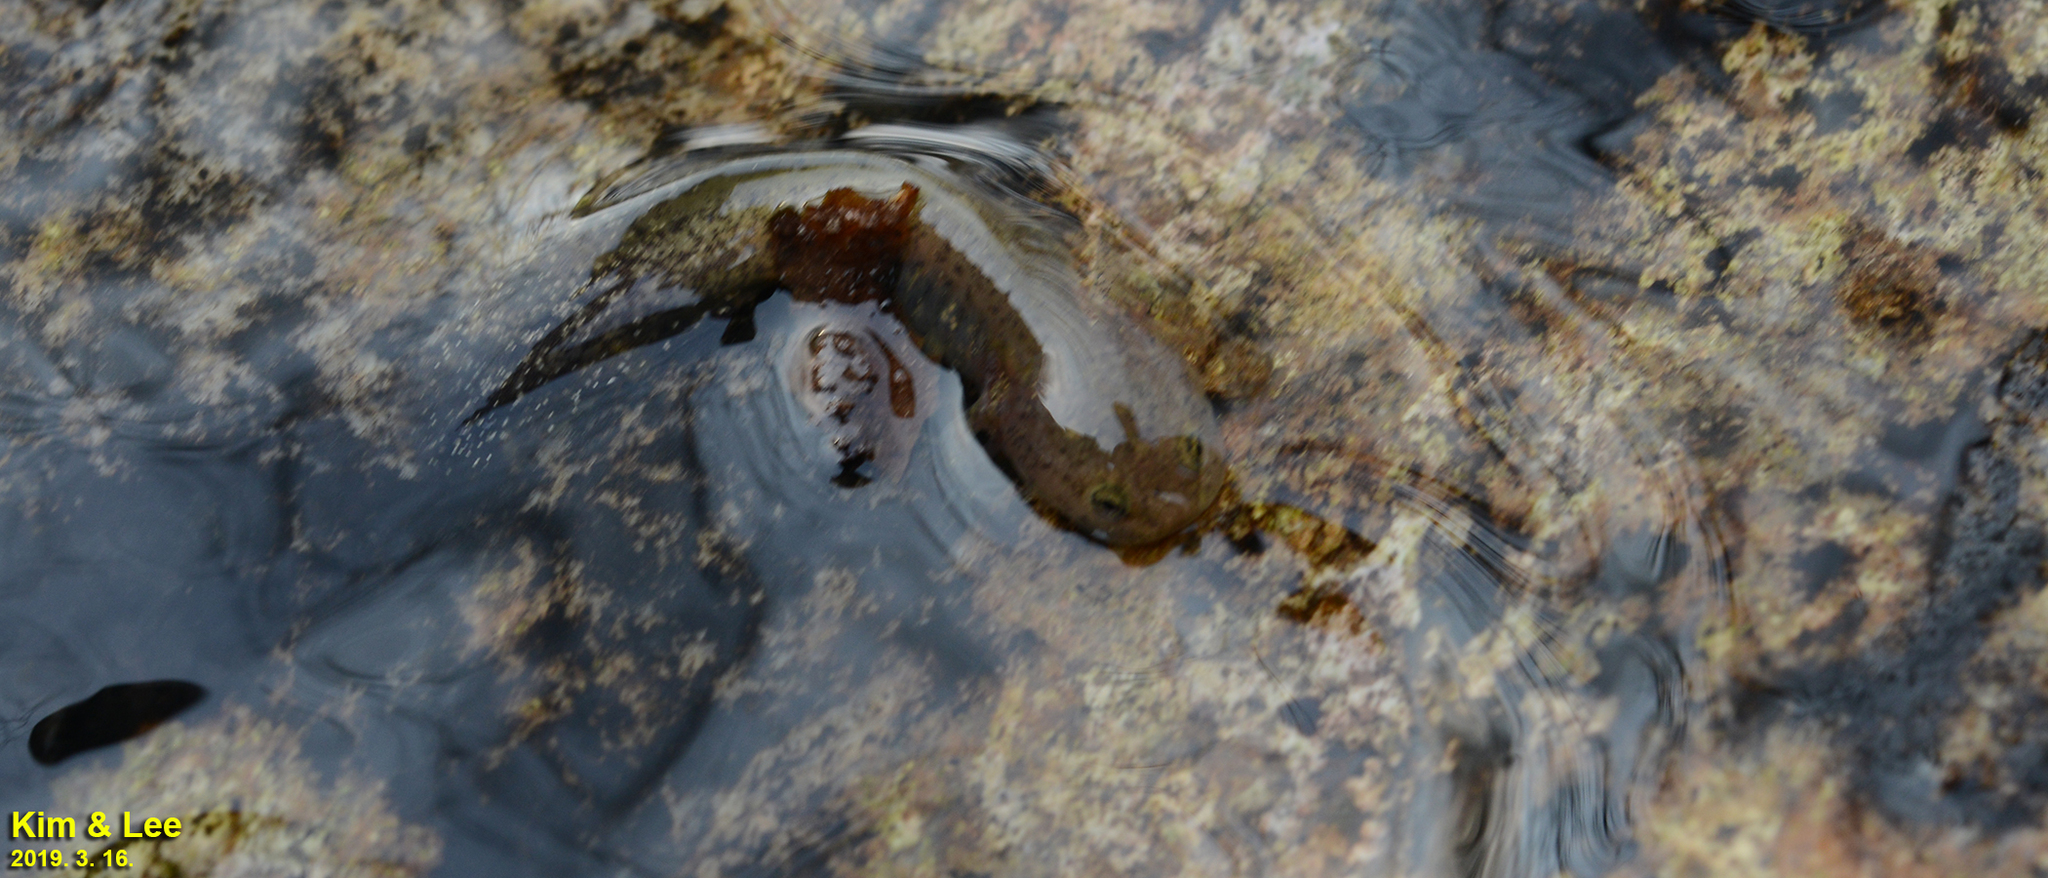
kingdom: Animalia
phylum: Chordata
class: Amphibia
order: Caudata
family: Hynobiidae
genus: Hynobius
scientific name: Hynobius leechii
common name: Gensan salamander
